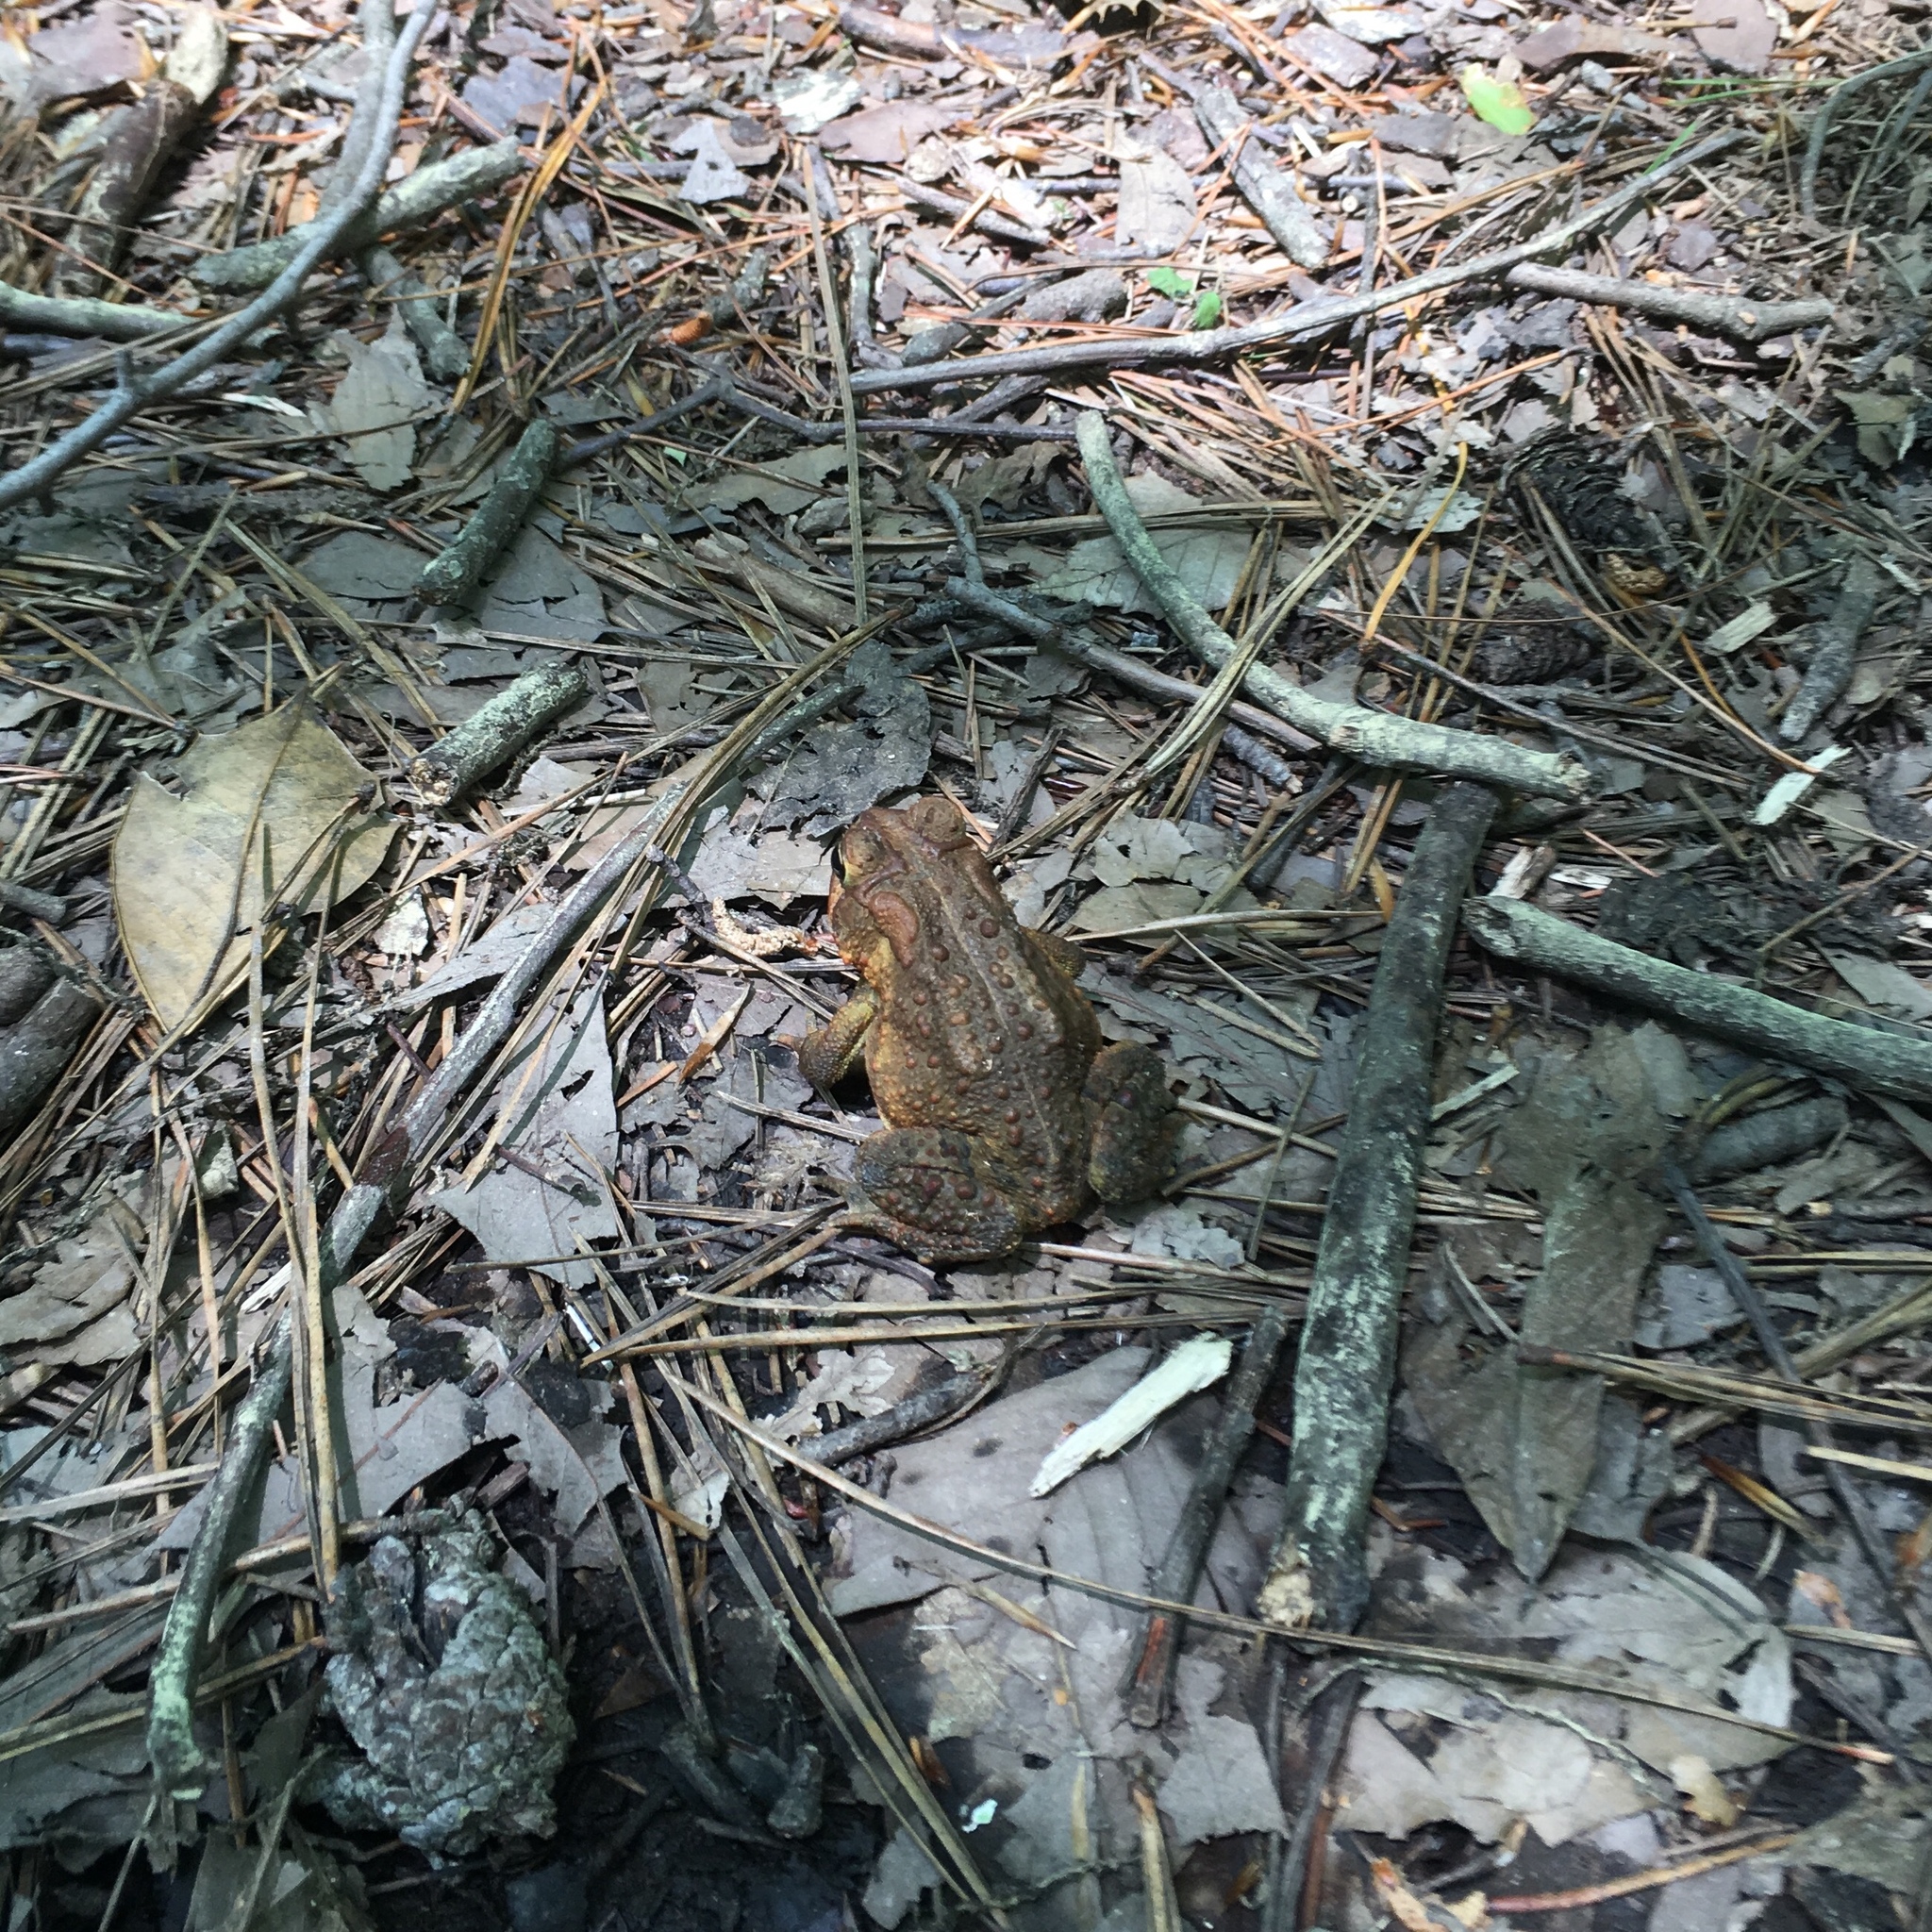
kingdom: Animalia
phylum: Chordata
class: Amphibia
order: Anura
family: Bufonidae
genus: Anaxyrus
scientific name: Anaxyrus americanus
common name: American toad
